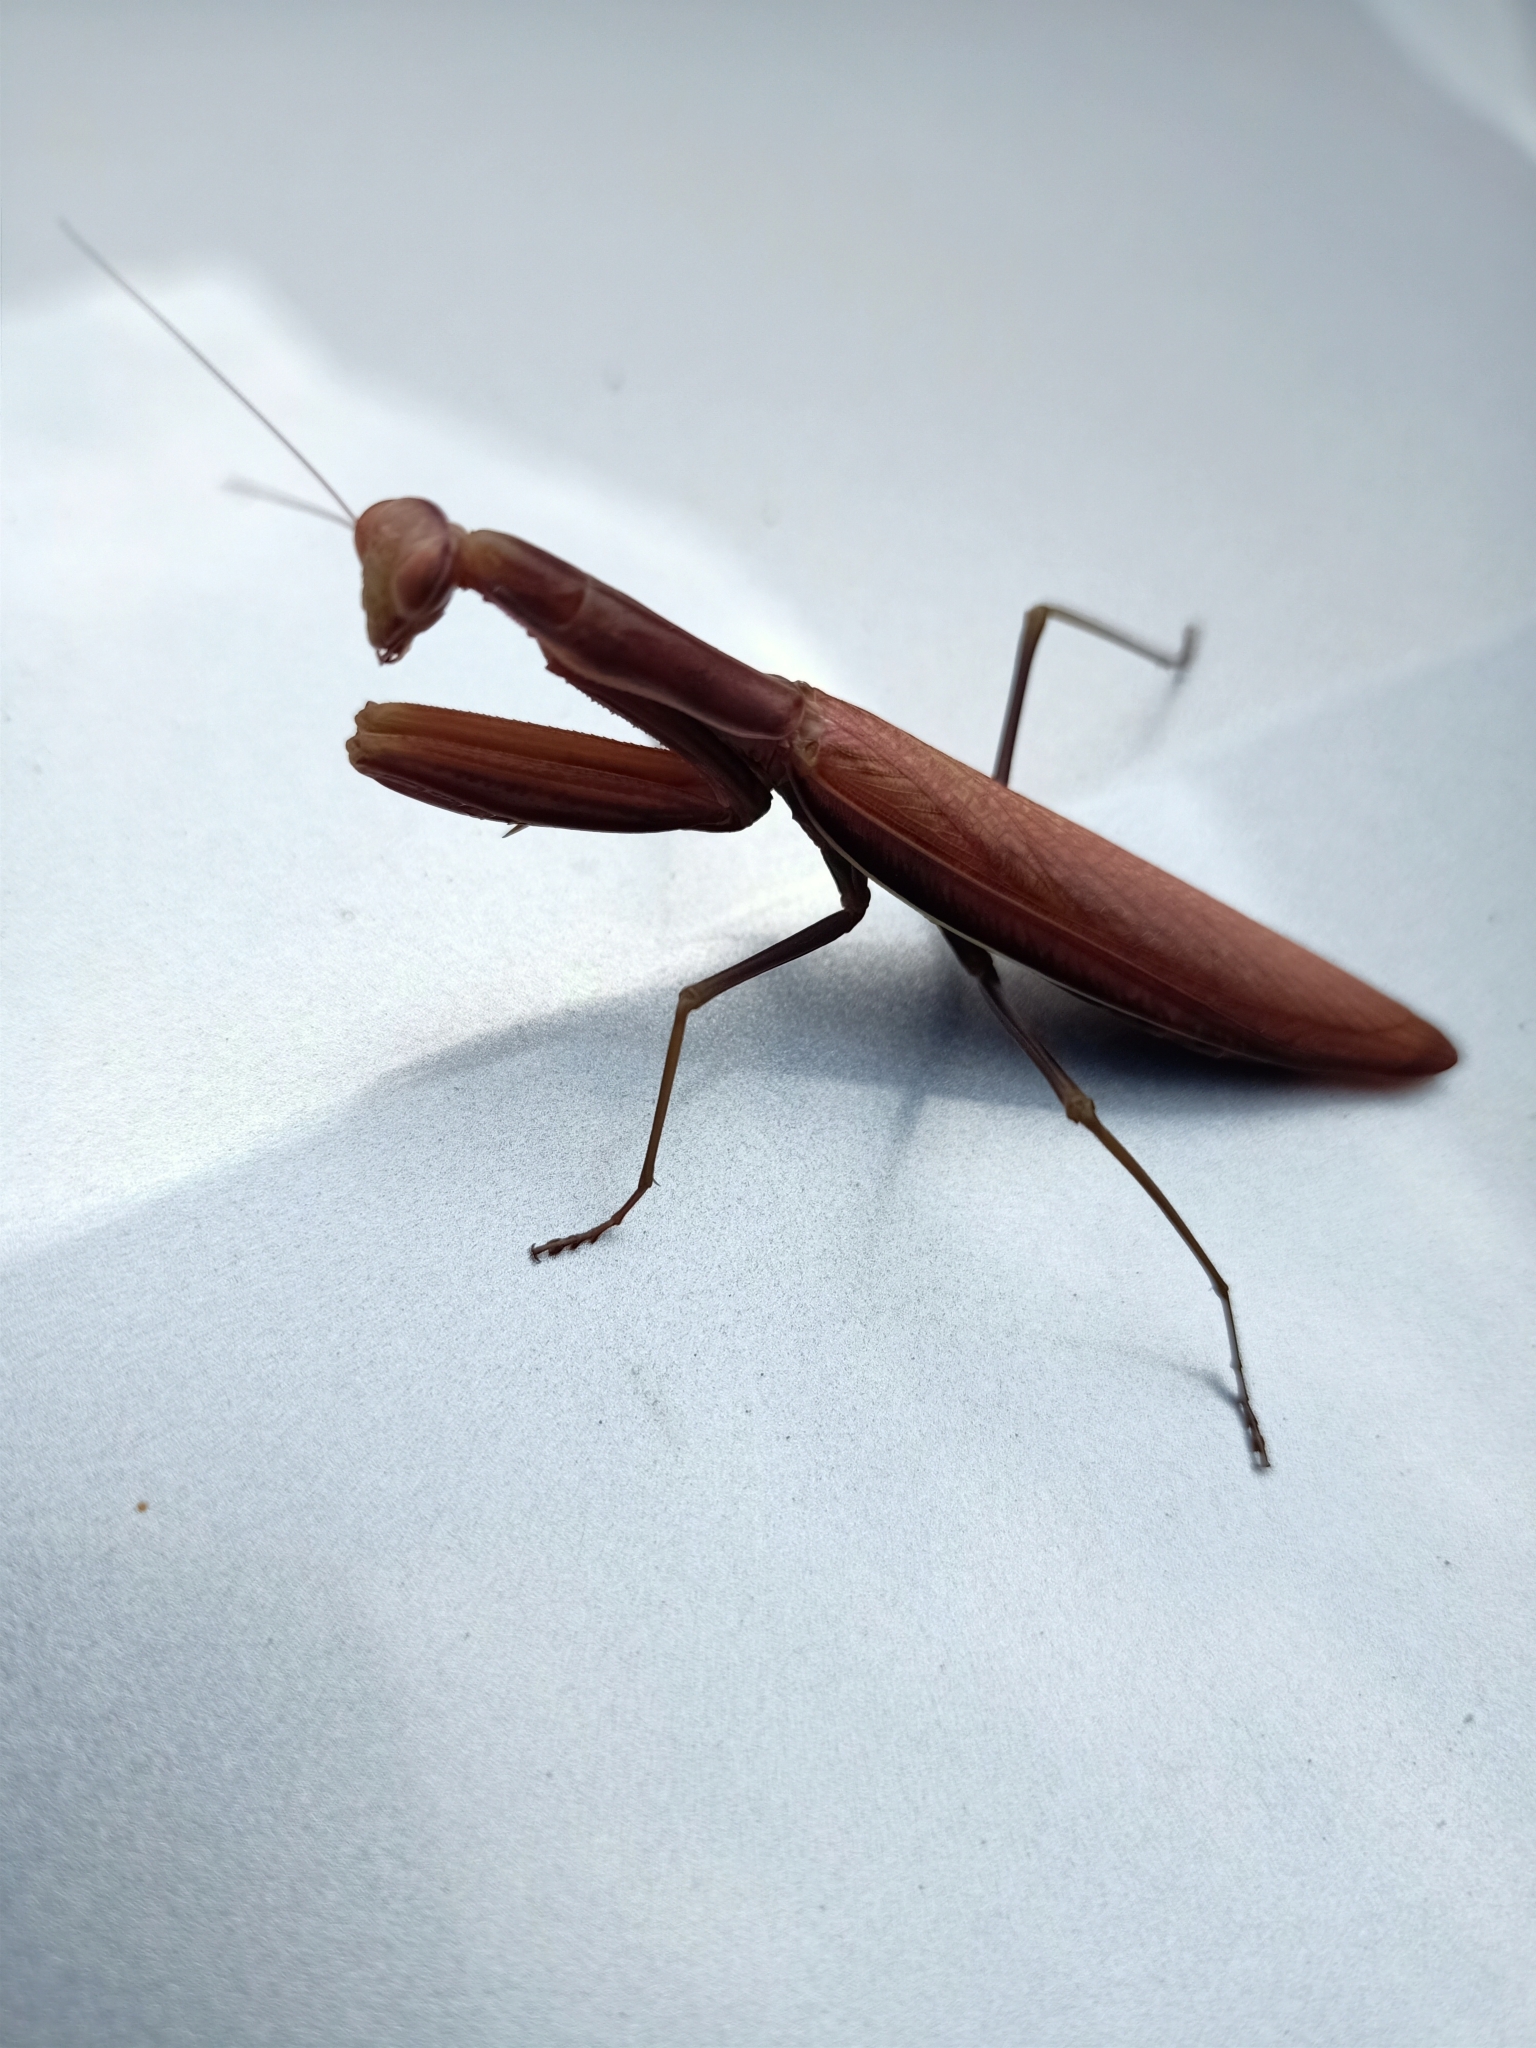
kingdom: Animalia
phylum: Arthropoda
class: Insecta
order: Mantodea
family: Mantidae
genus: Mantis
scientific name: Mantis religiosa
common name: Praying mantis
